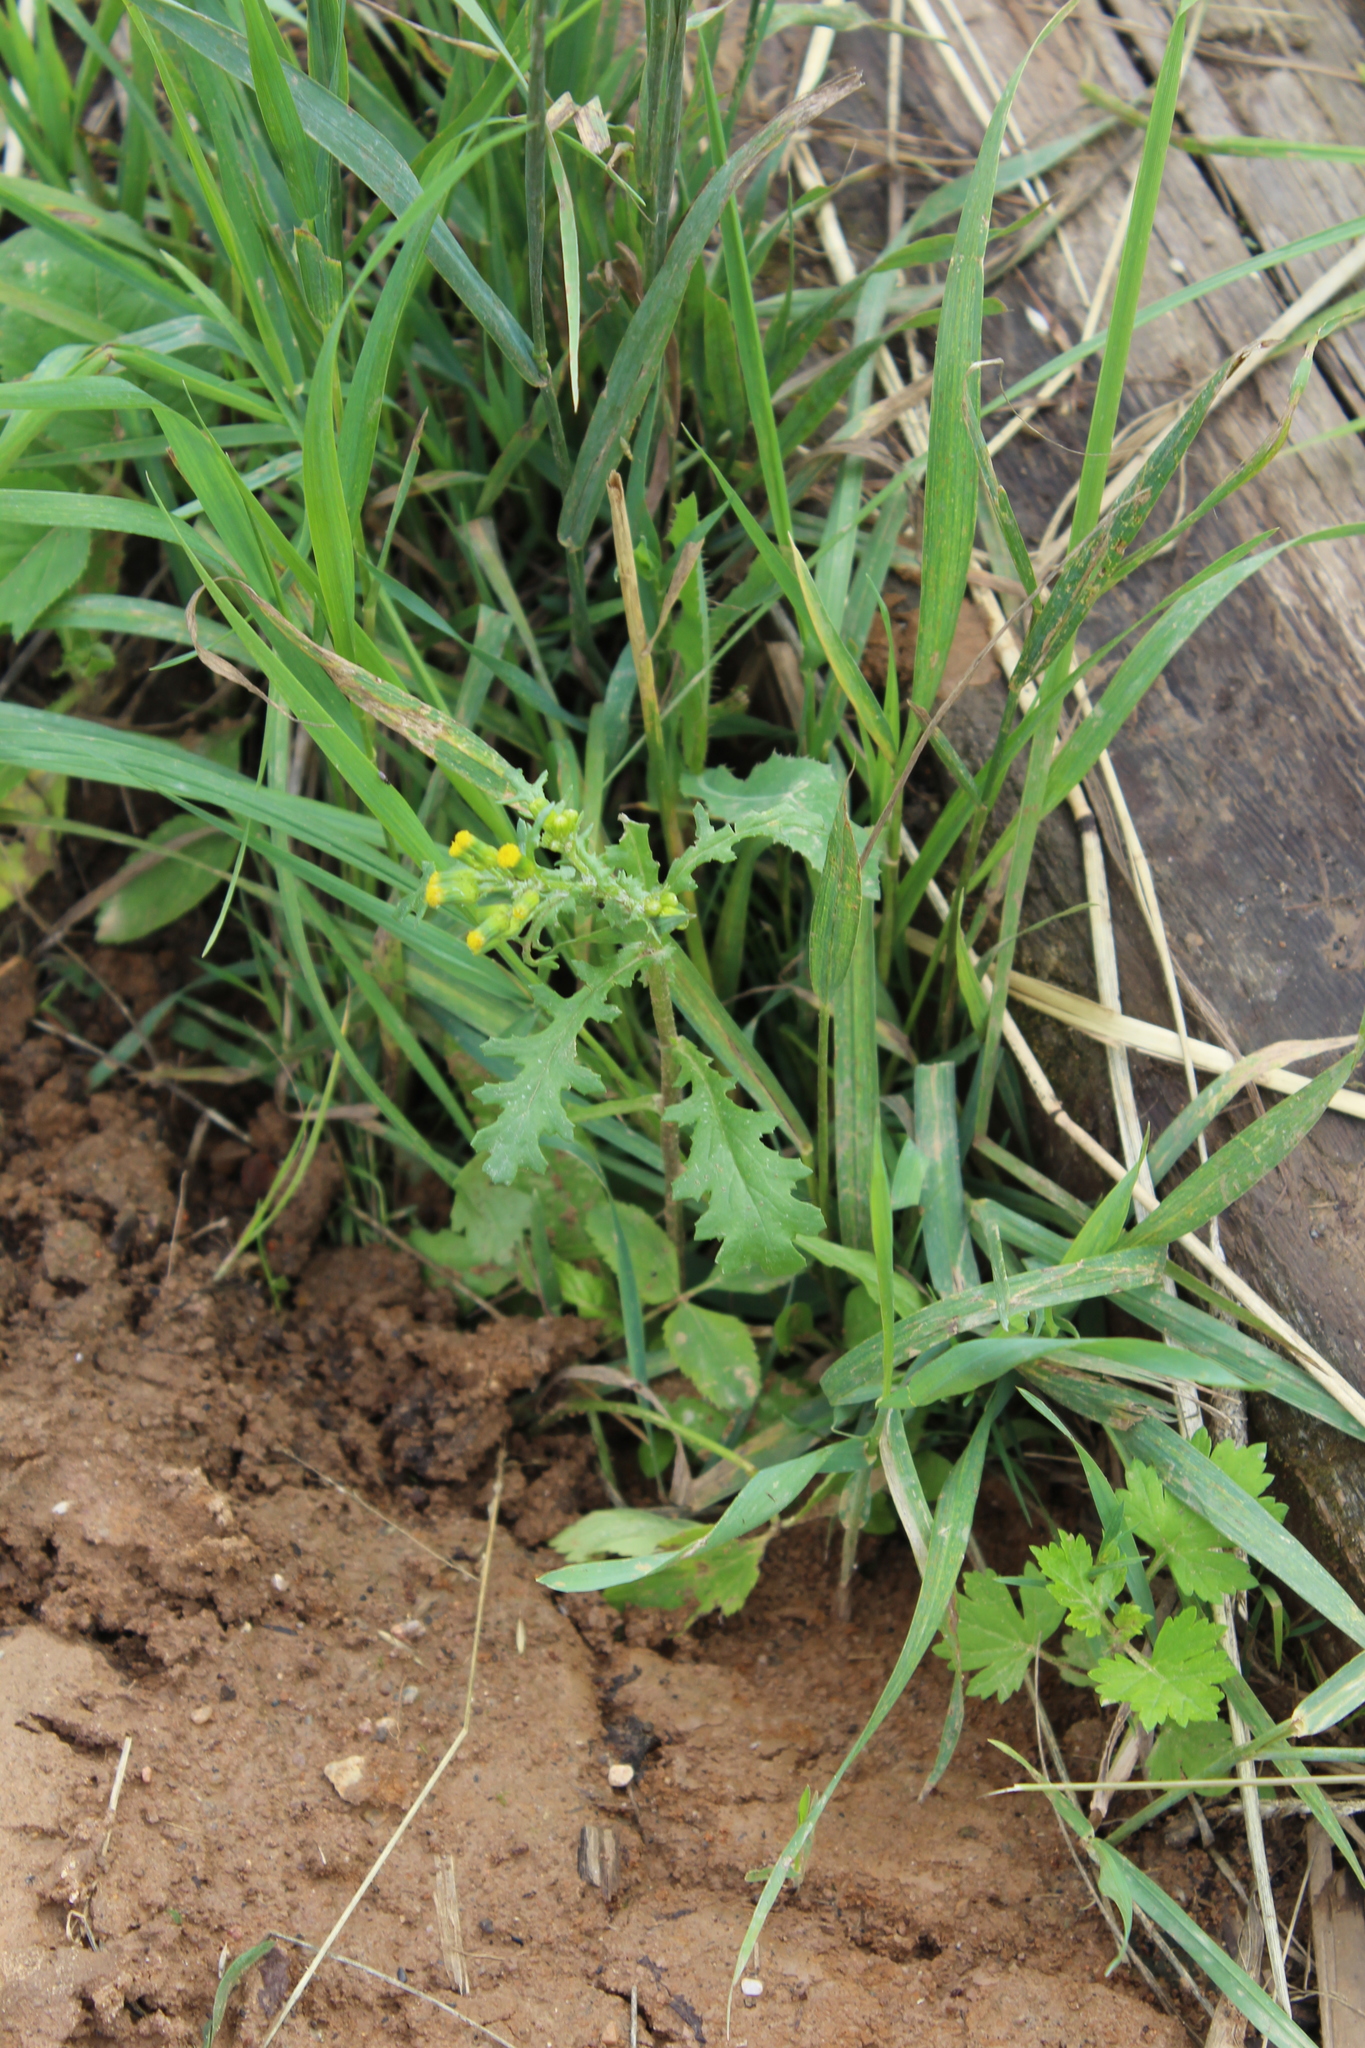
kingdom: Plantae
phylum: Tracheophyta
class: Magnoliopsida
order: Asterales
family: Asteraceae
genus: Senecio
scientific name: Senecio vulgaris
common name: Old-man-in-the-spring
